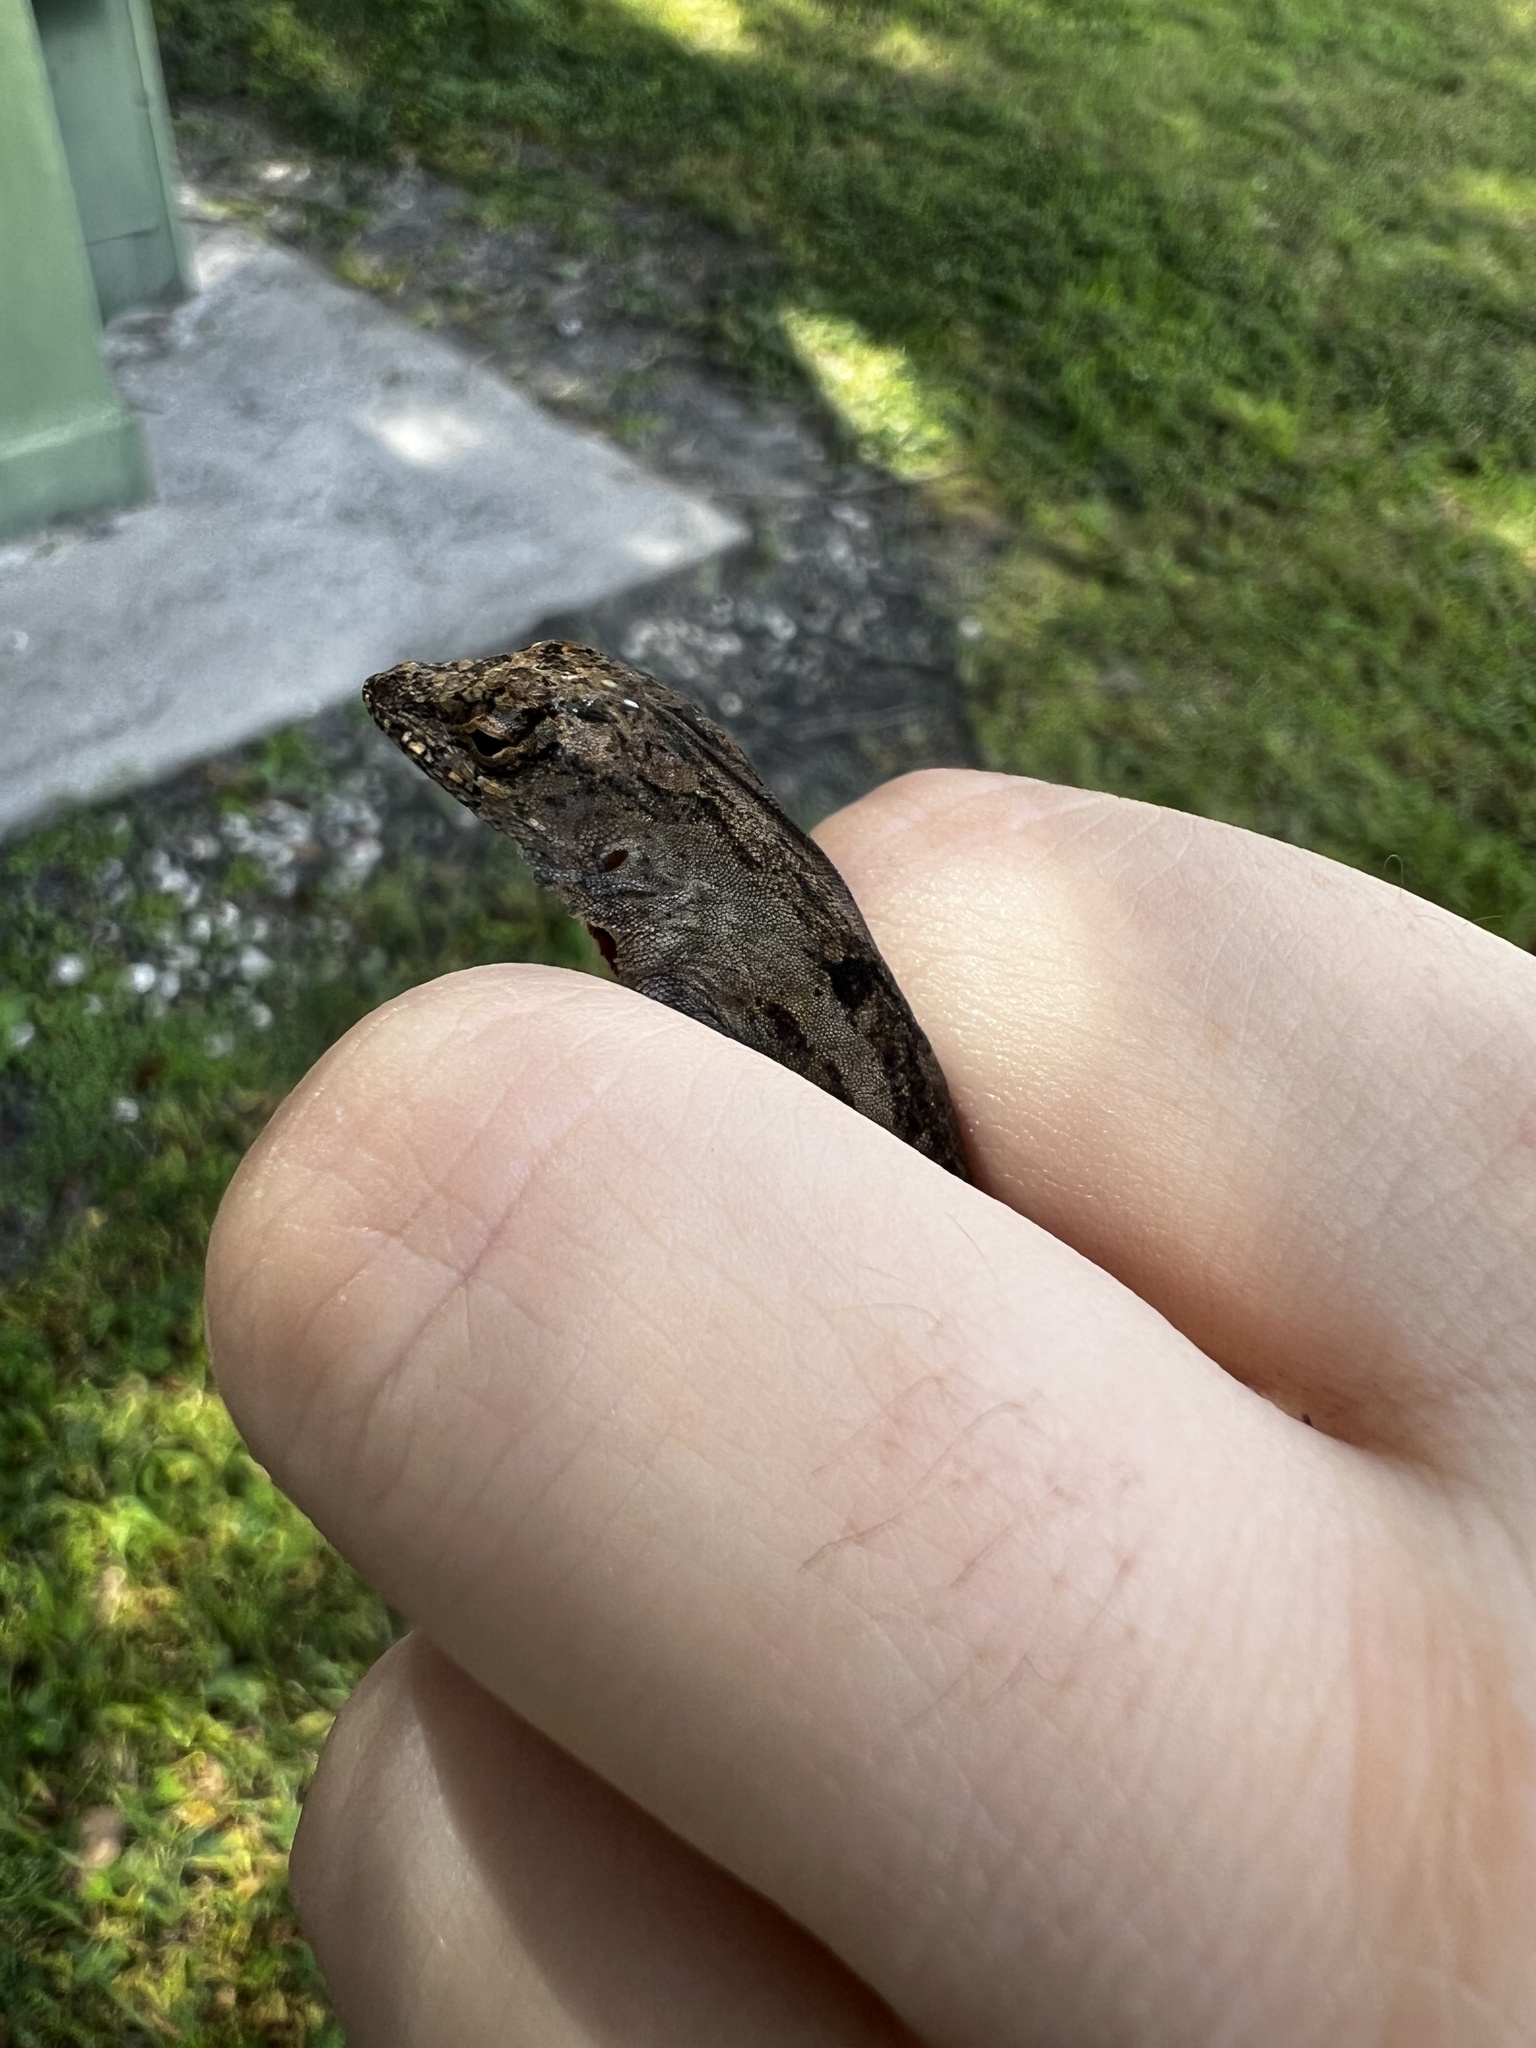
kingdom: Animalia
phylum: Chordata
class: Squamata
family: Dactyloidae
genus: Anolis
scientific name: Anolis sagrei
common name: Brown anole
